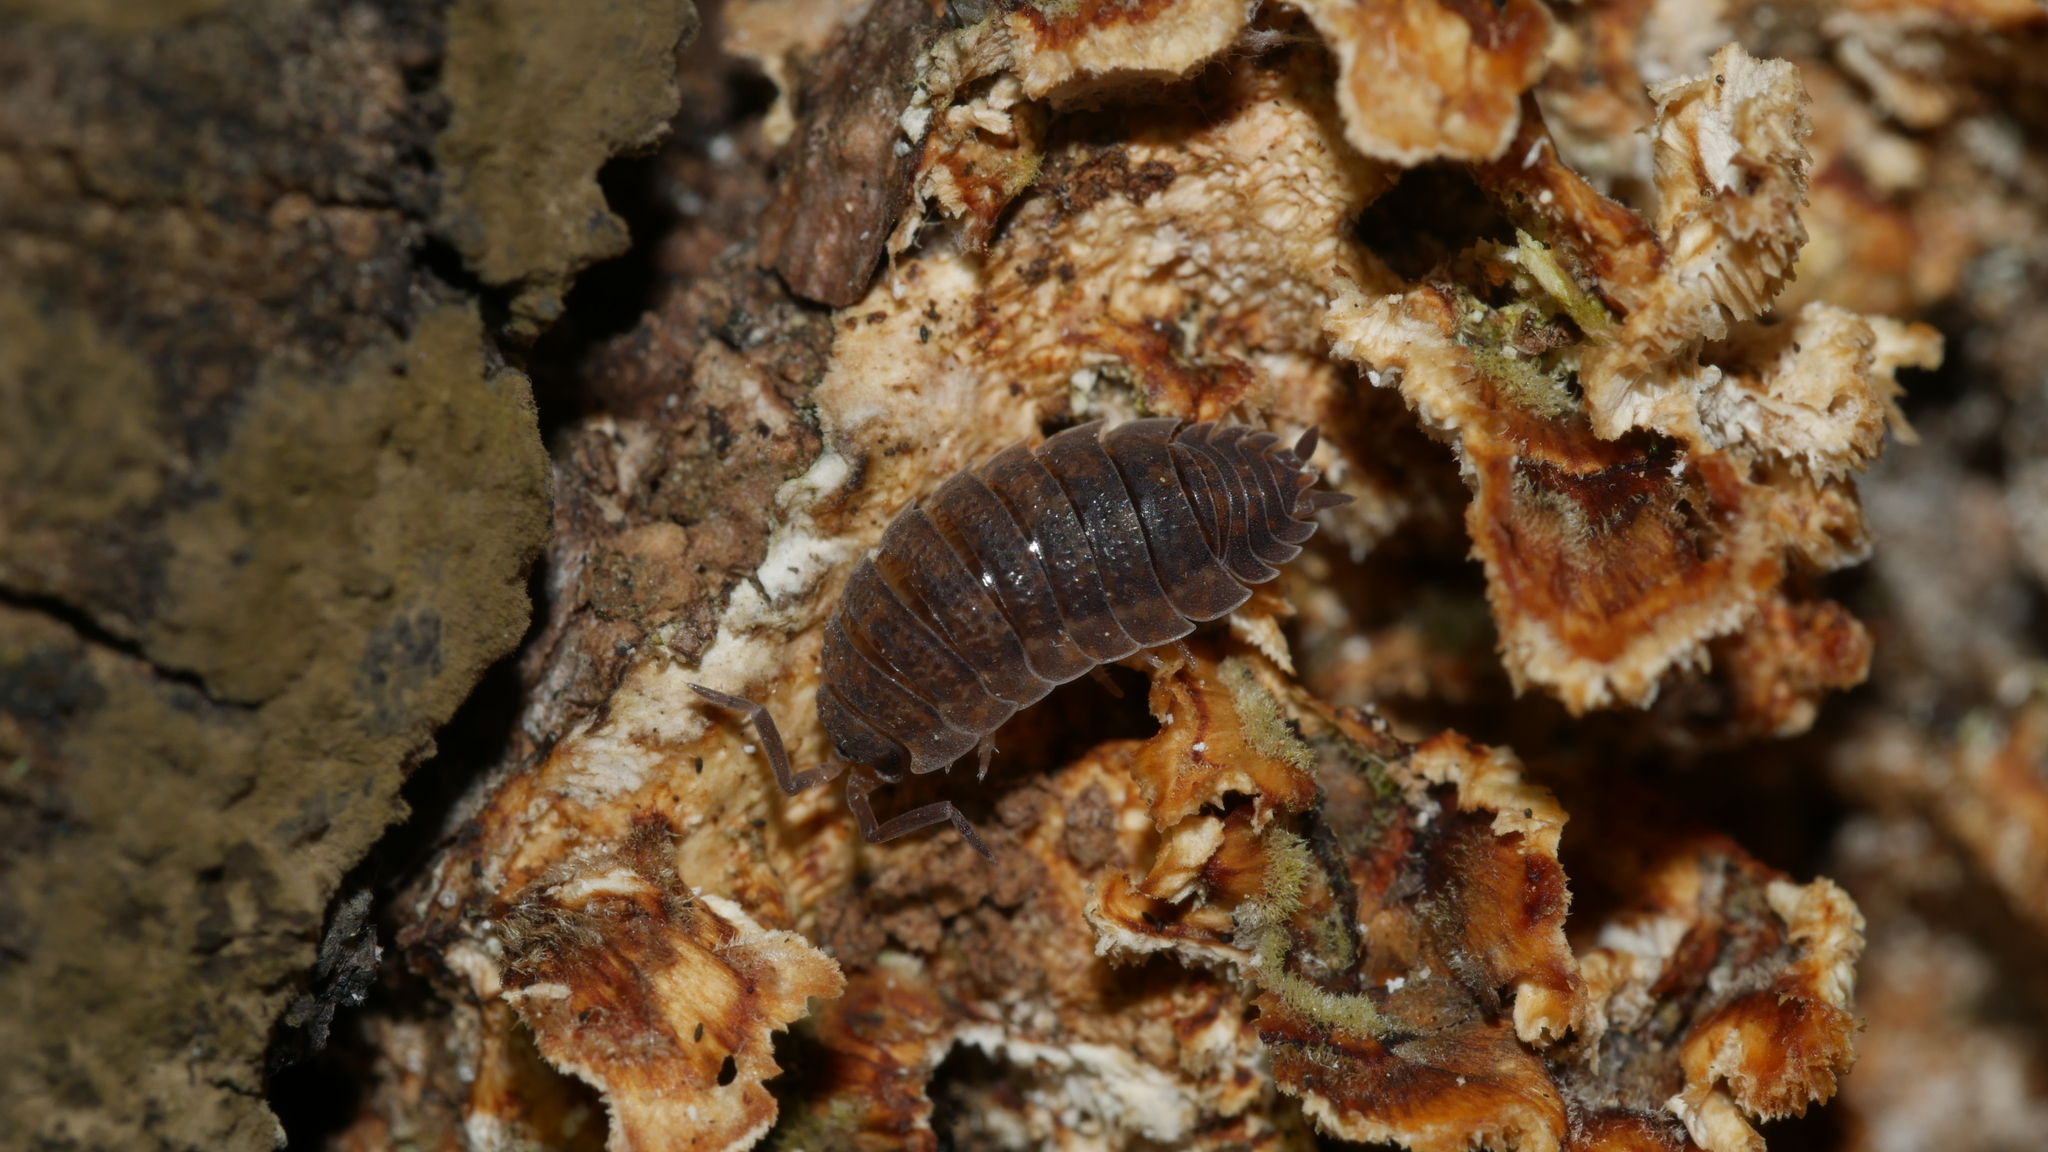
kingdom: Animalia
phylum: Arthropoda
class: Malacostraca
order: Isopoda
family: Porcellionidae
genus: Porcellio
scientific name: Porcellio scaber
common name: Common rough woodlouse
